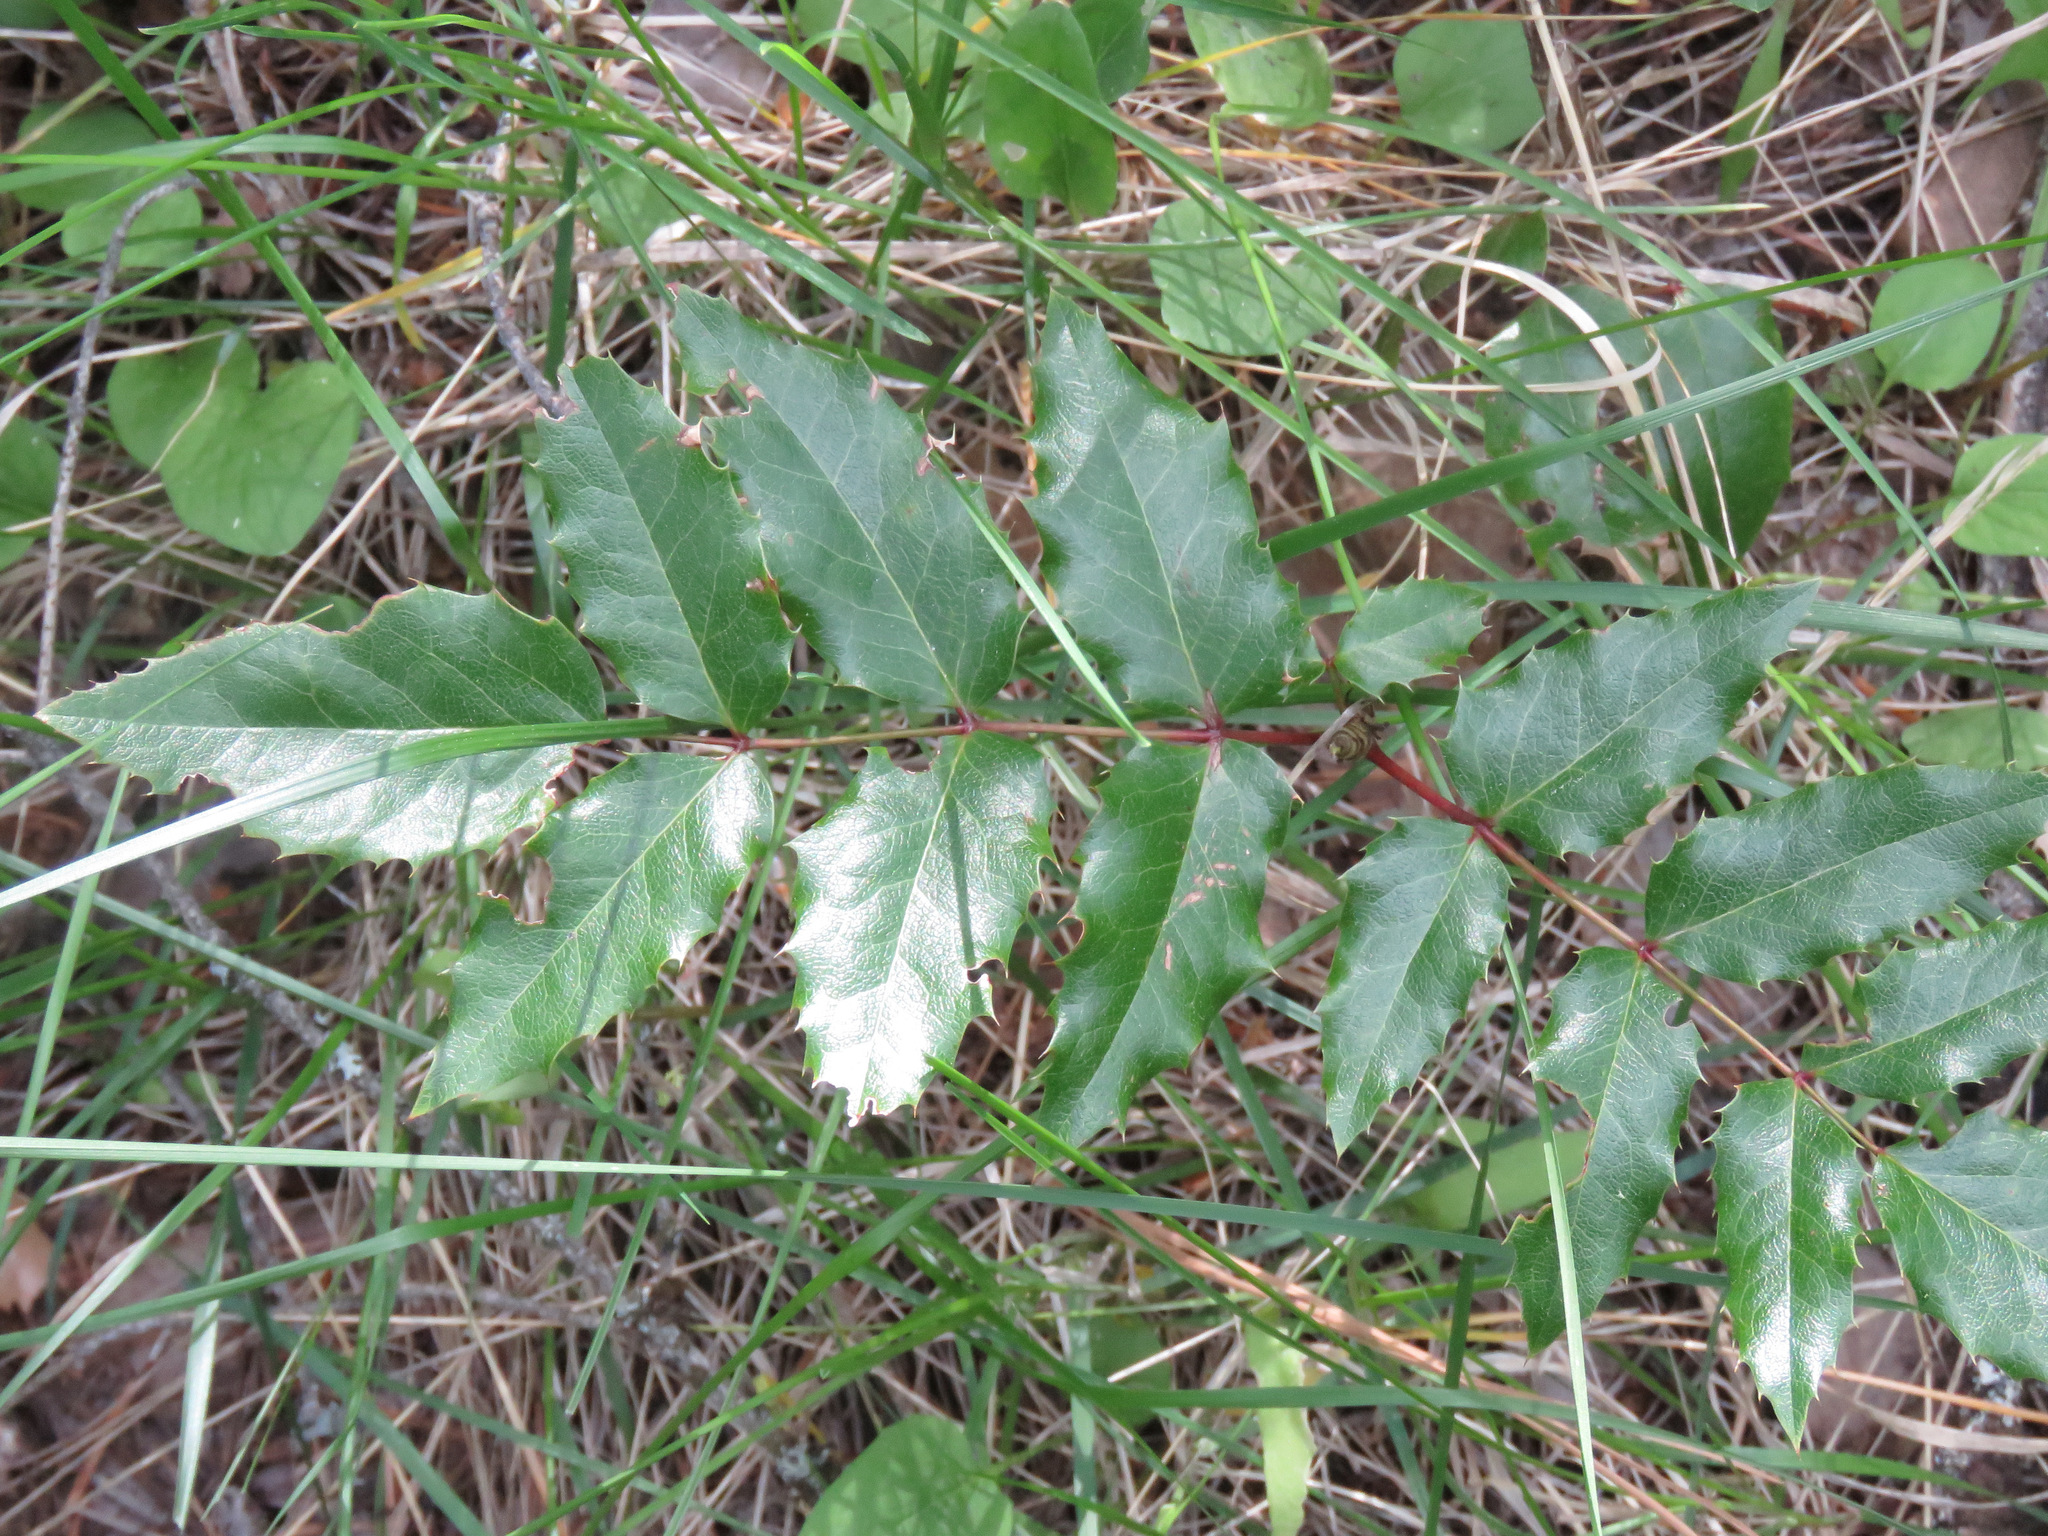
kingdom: Plantae
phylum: Tracheophyta
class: Magnoliopsida
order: Ranunculales
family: Berberidaceae
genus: Mahonia
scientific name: Mahonia aquifolium
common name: Oregon-grape
